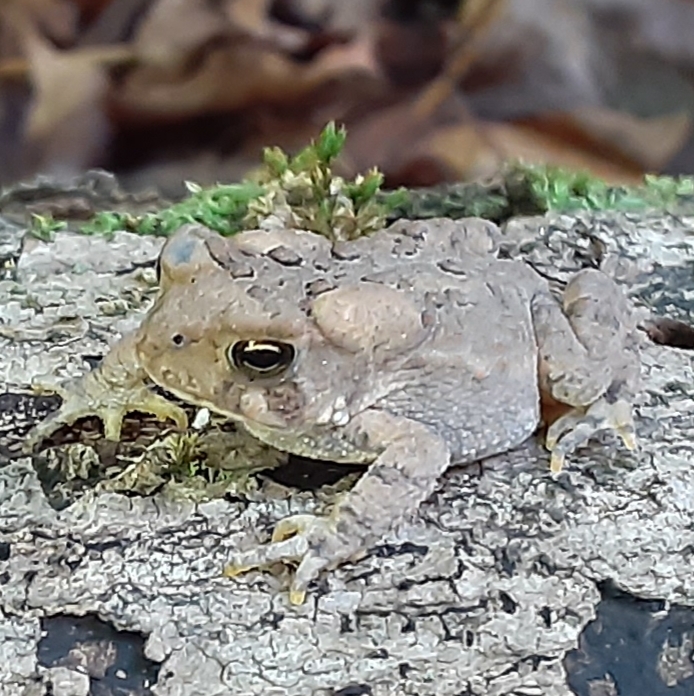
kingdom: Animalia
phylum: Chordata
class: Amphibia
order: Anura
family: Bufonidae
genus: Anaxyrus
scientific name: Anaxyrus americanus
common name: American toad
